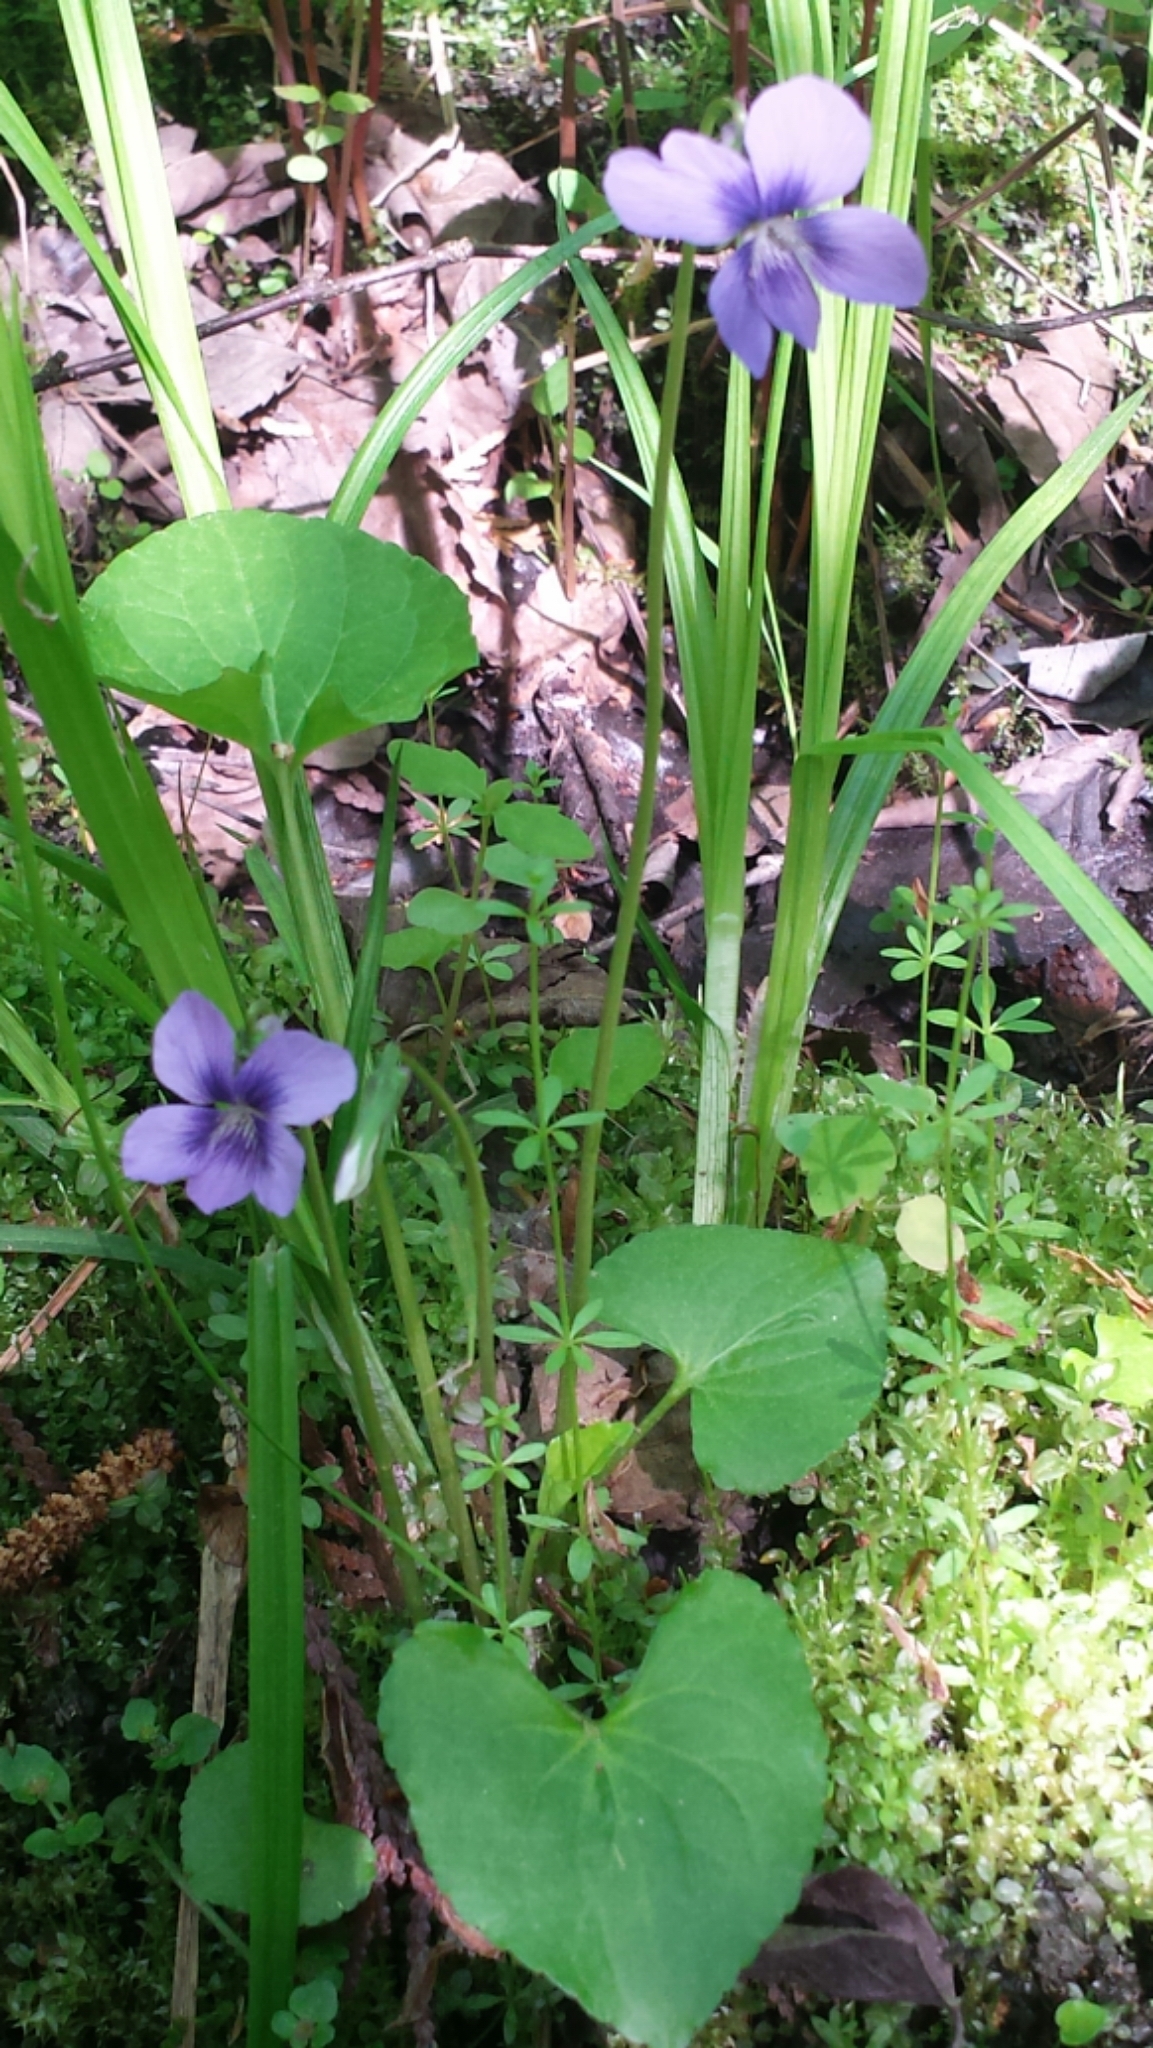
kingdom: Plantae
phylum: Tracheophyta
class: Magnoliopsida
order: Malpighiales
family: Violaceae
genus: Viola
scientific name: Viola cucullata
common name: Marsh blue violet
